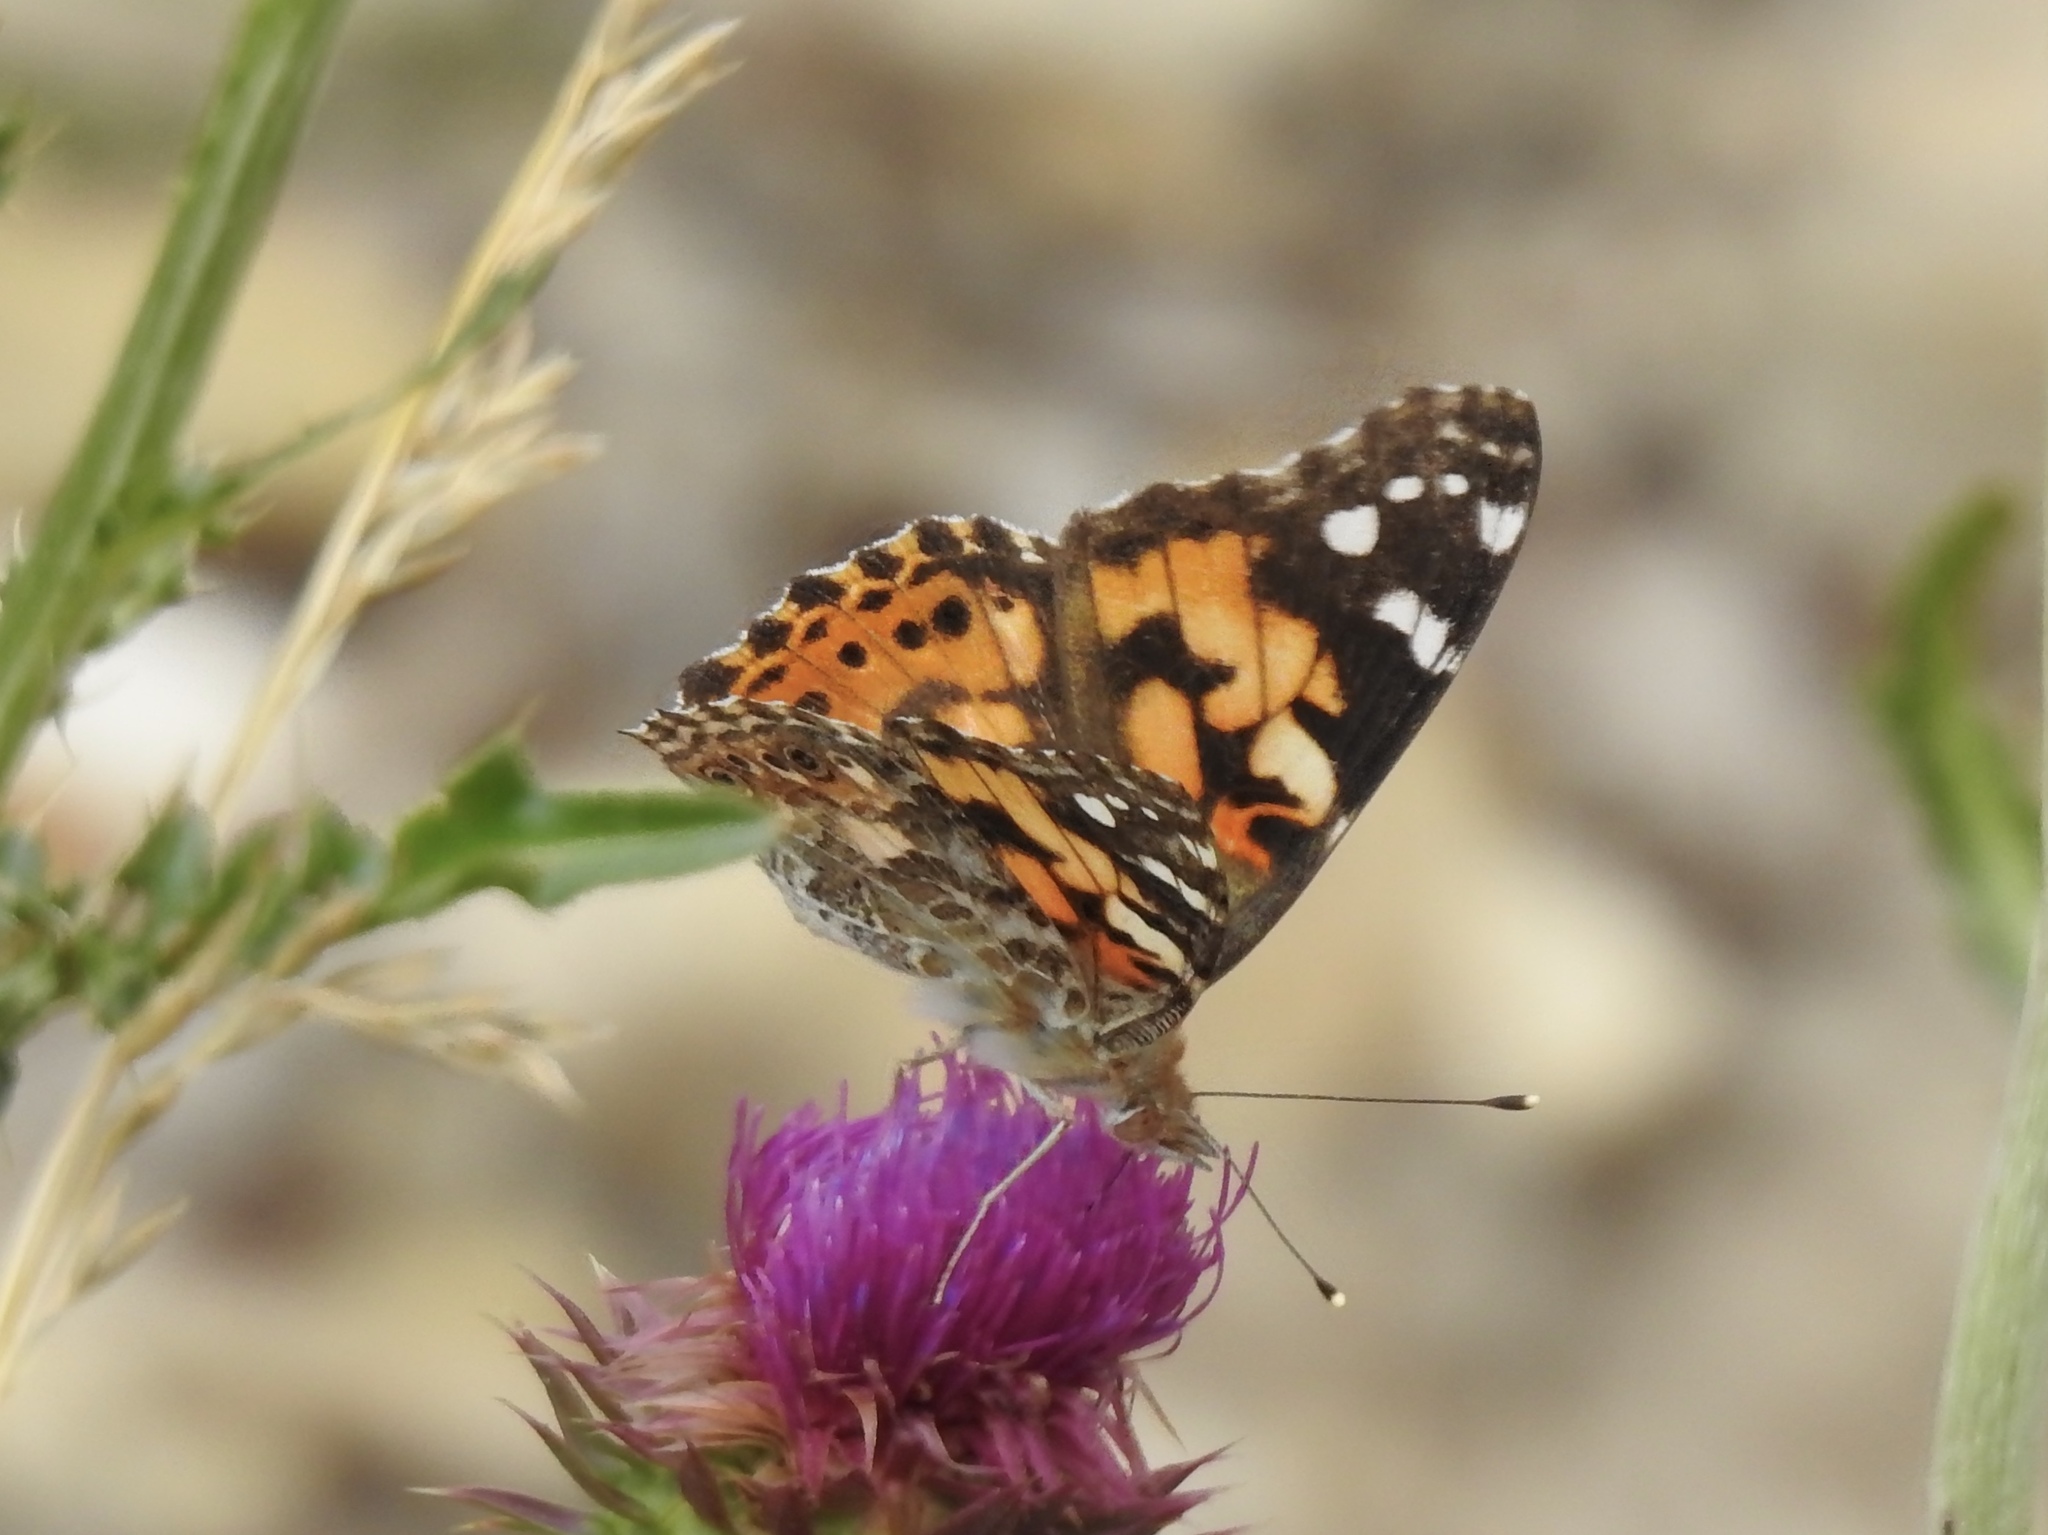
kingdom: Animalia
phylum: Arthropoda
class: Insecta
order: Lepidoptera
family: Nymphalidae
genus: Vanessa
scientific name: Vanessa cardui
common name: Painted lady
